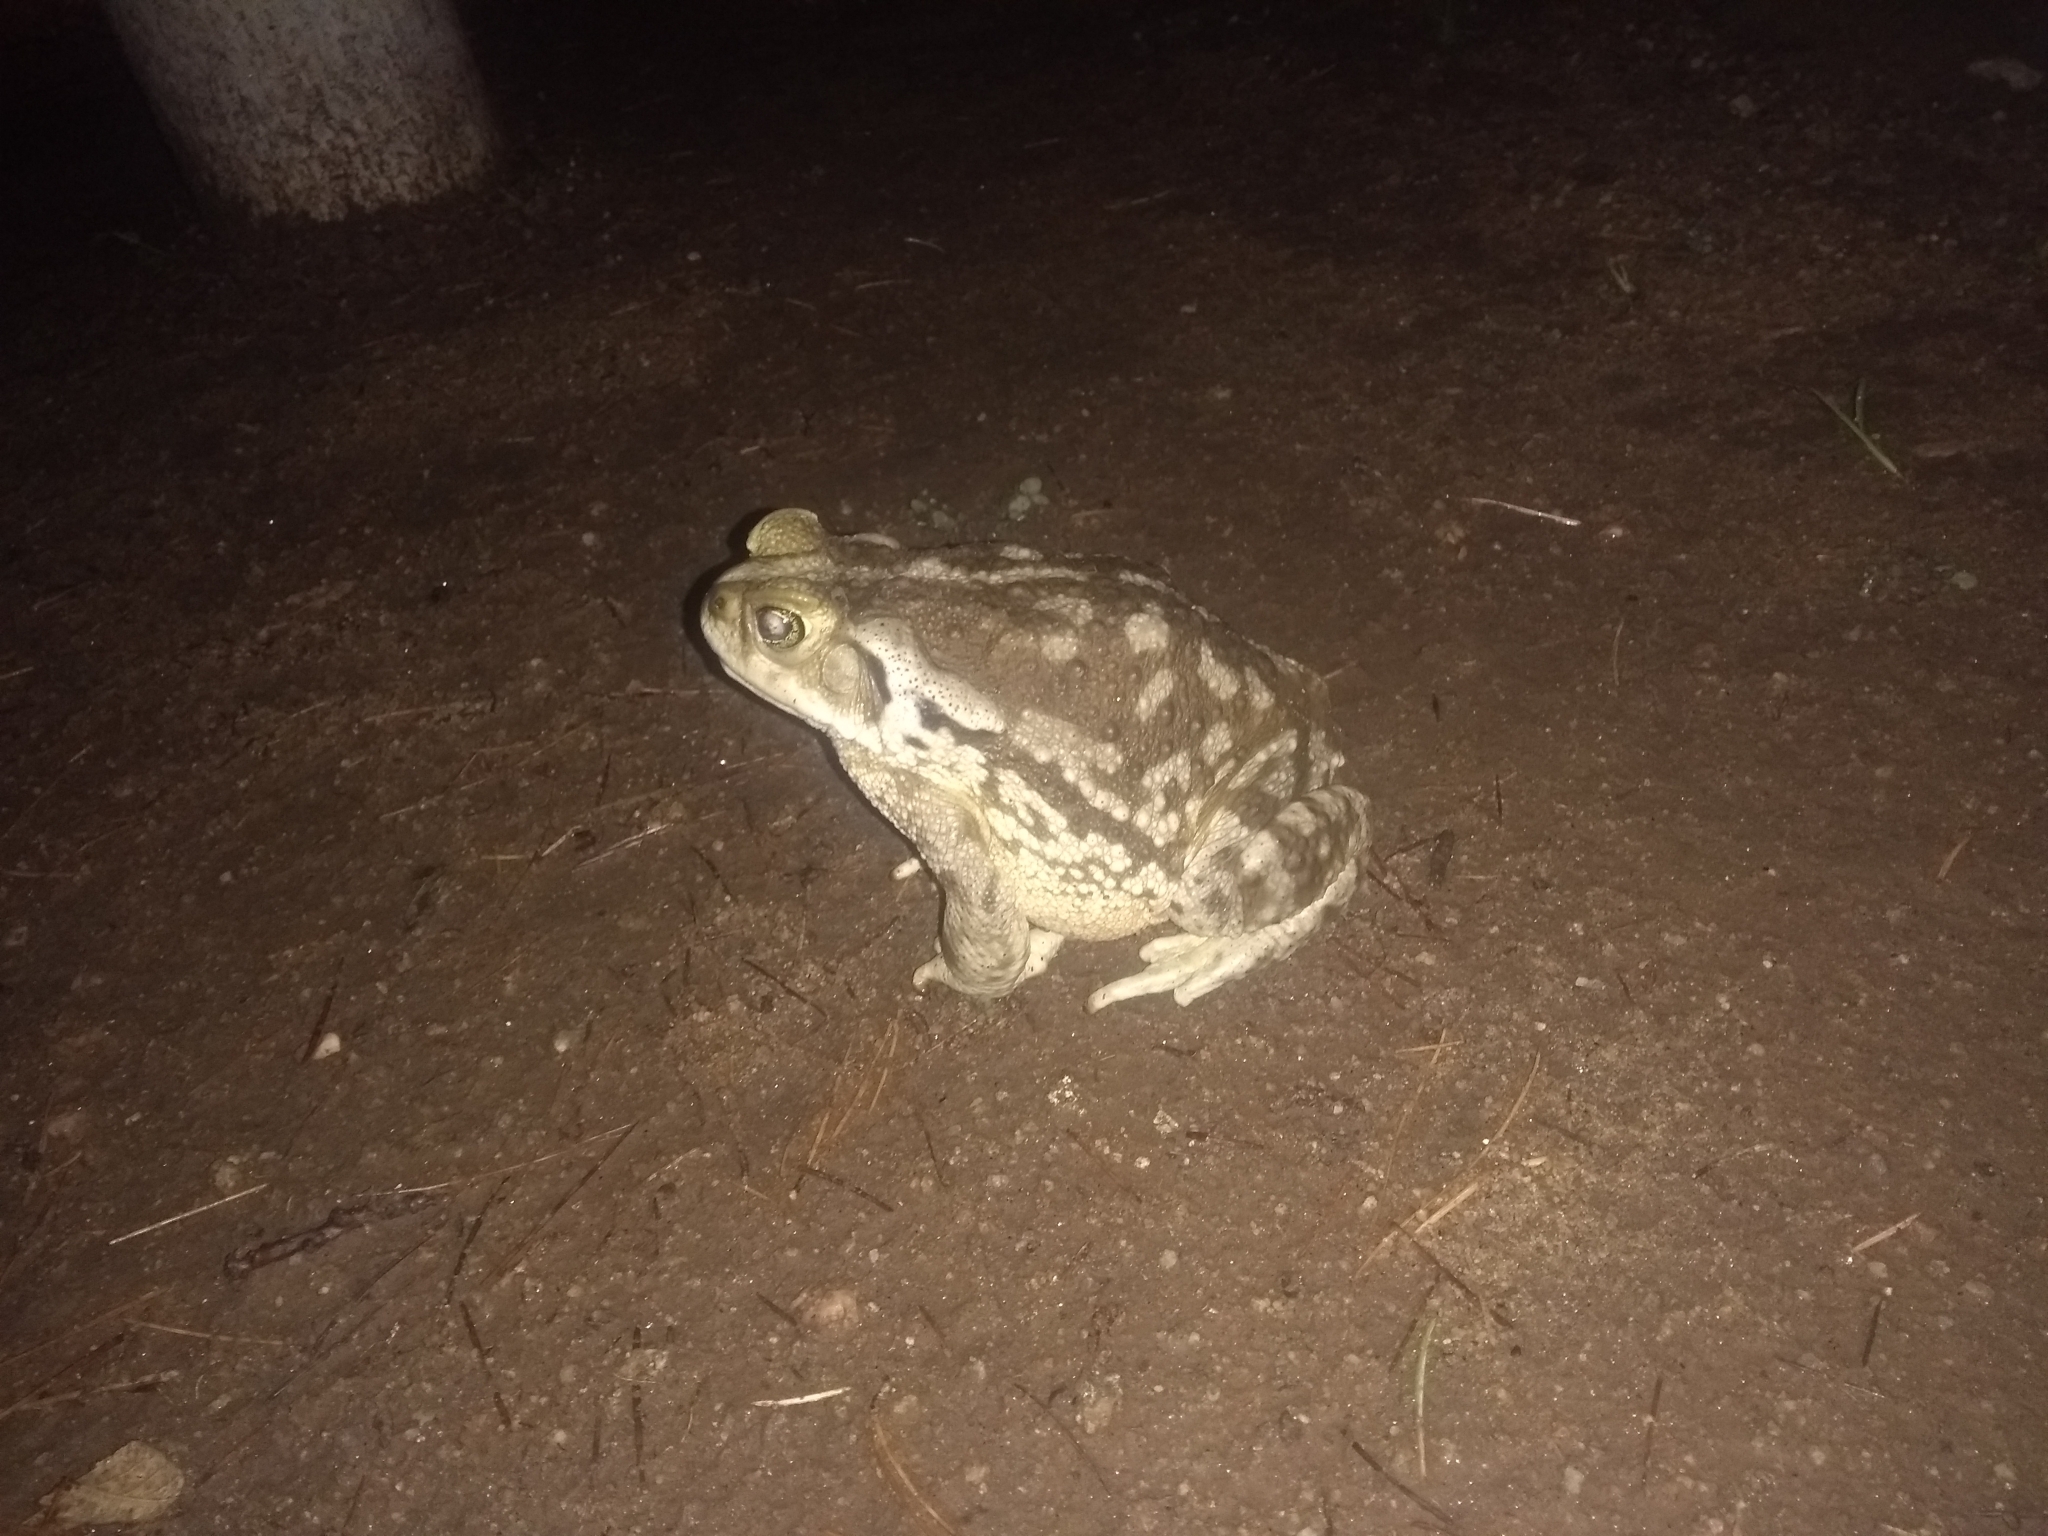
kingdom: Animalia
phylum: Chordata
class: Amphibia
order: Anura
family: Bufonidae
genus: Rhinella
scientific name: Rhinella arenarum
